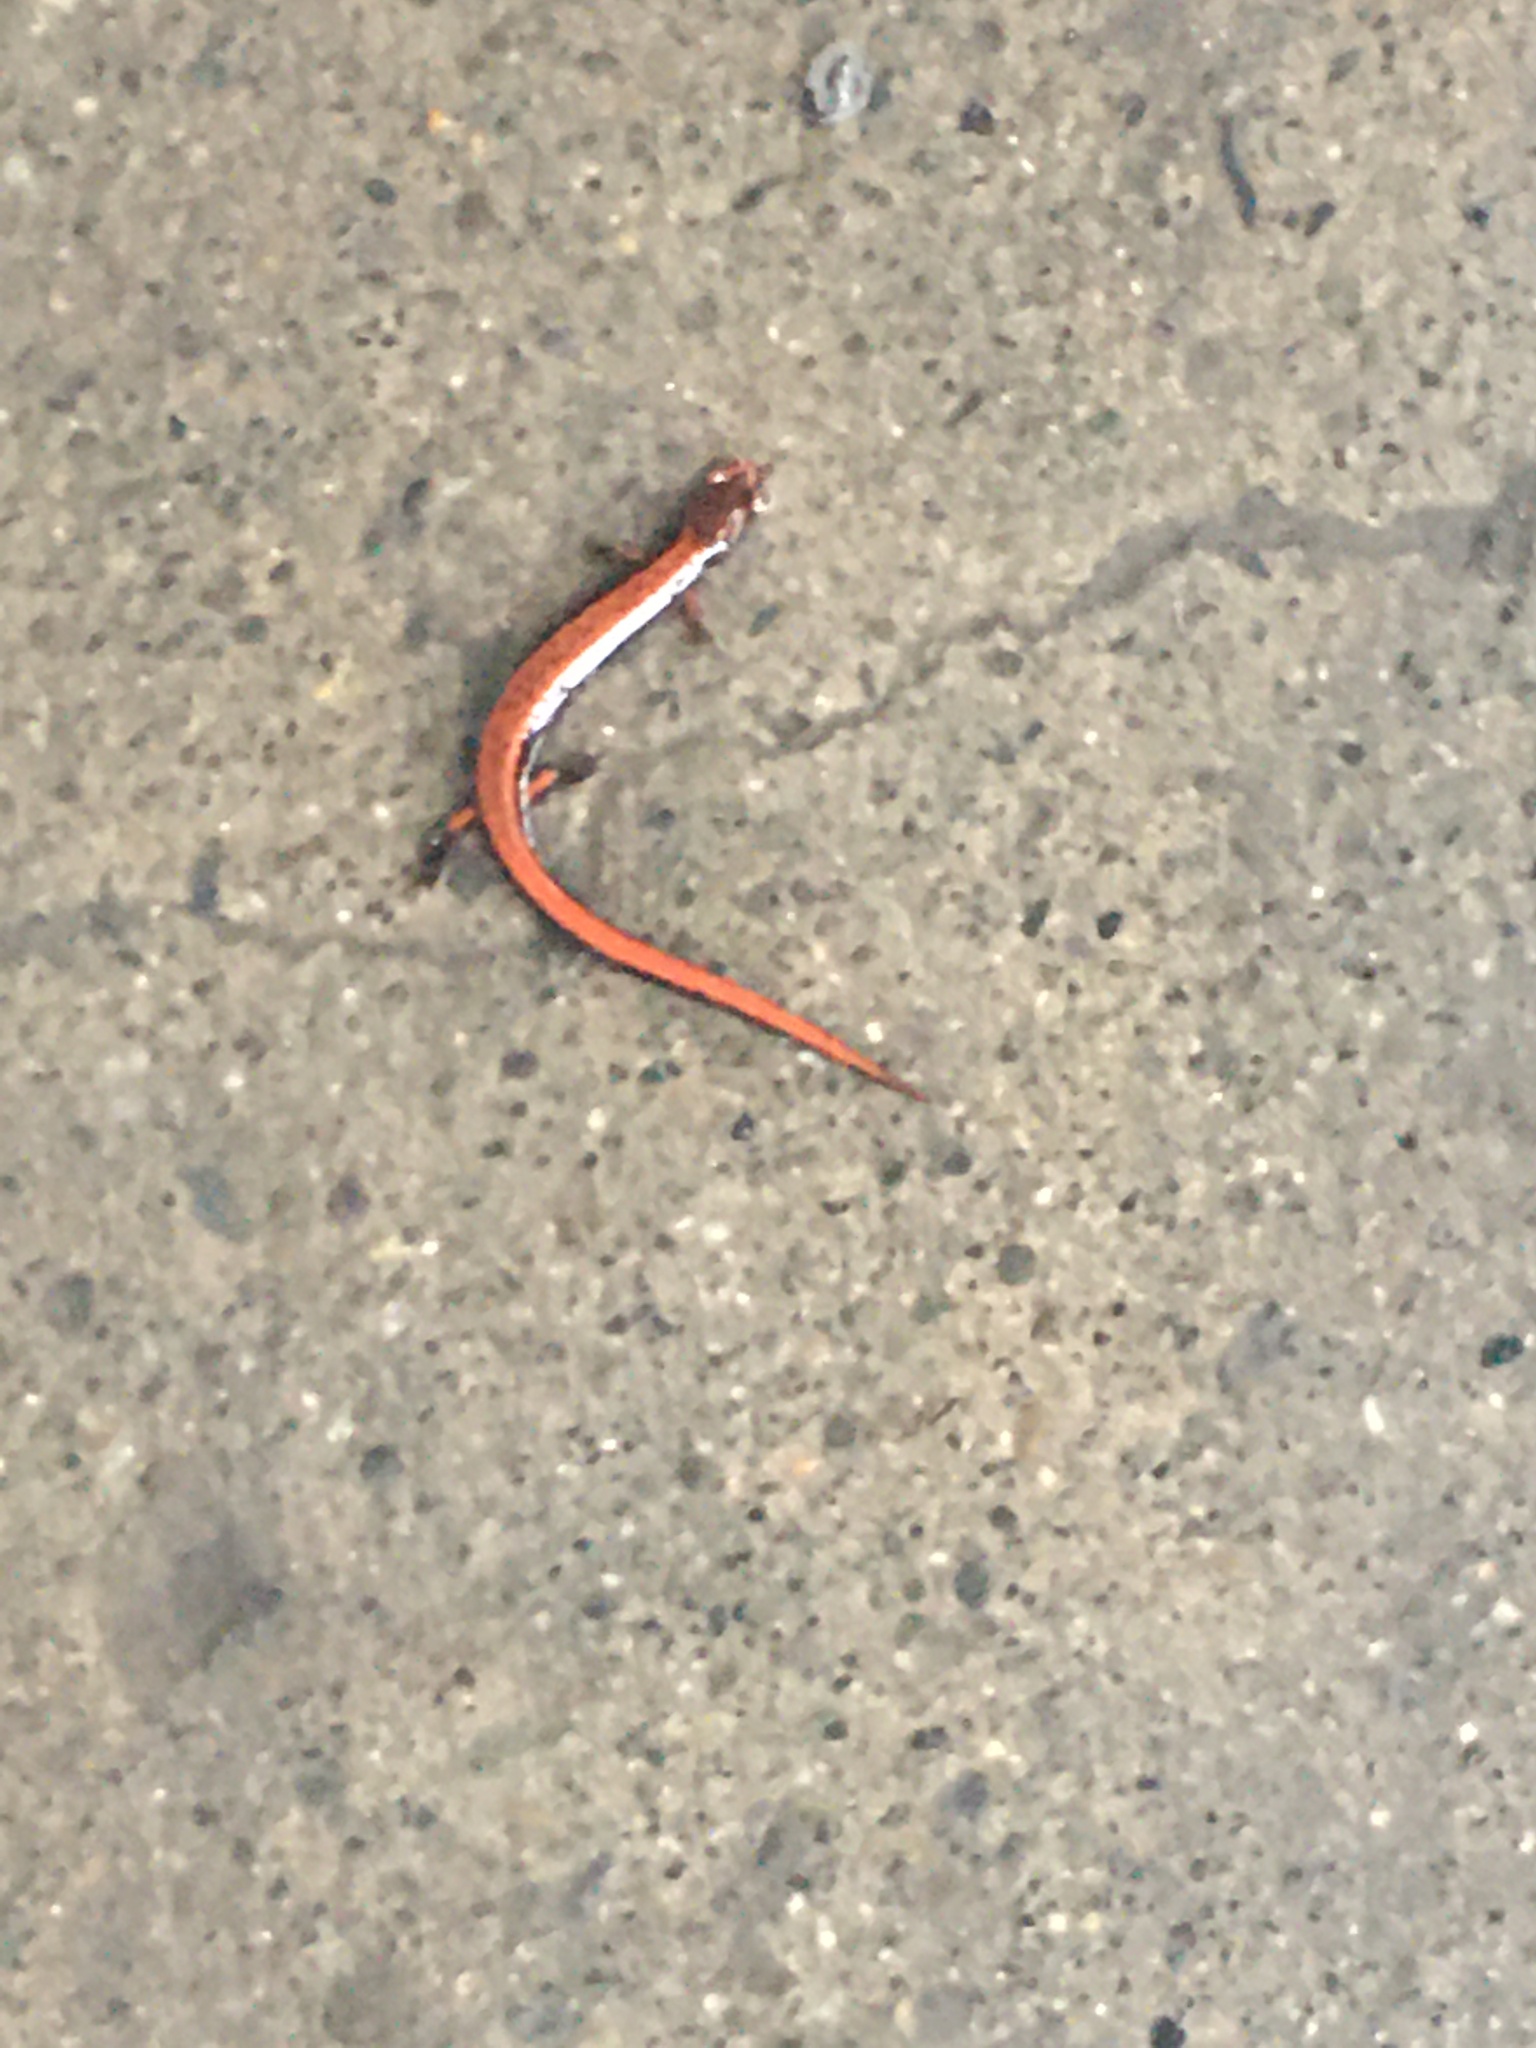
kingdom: Animalia
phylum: Chordata
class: Amphibia
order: Caudata
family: Plethodontidae
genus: Plethodon
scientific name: Plethodon vehiculum
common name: Western red-backed salamander
